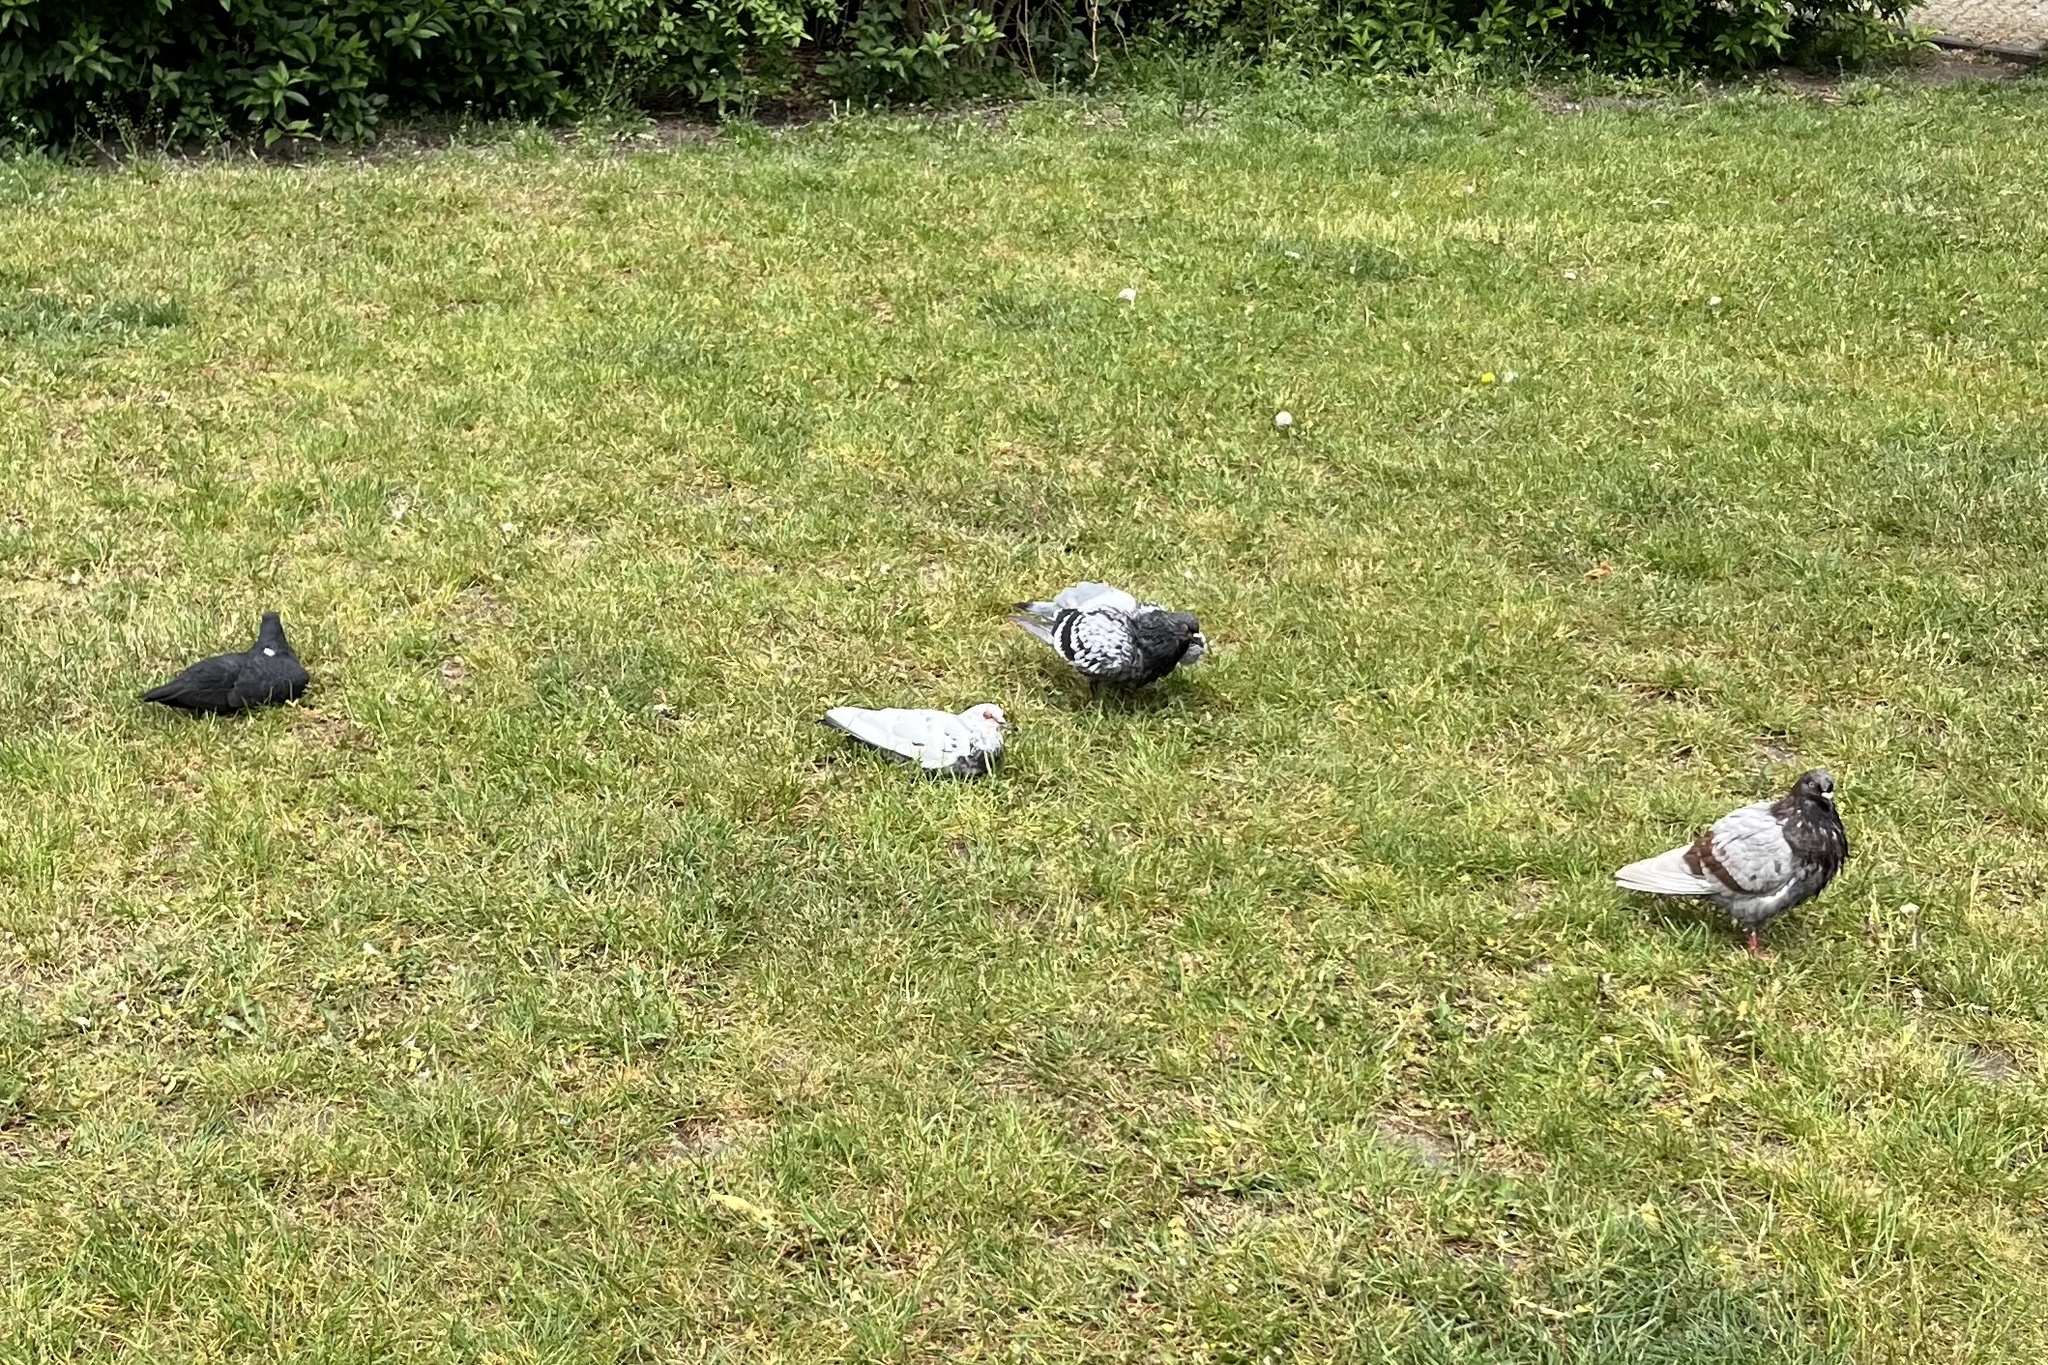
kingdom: Animalia
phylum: Chordata
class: Aves
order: Columbiformes
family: Columbidae
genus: Columba
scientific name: Columba livia
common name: Rock pigeon
